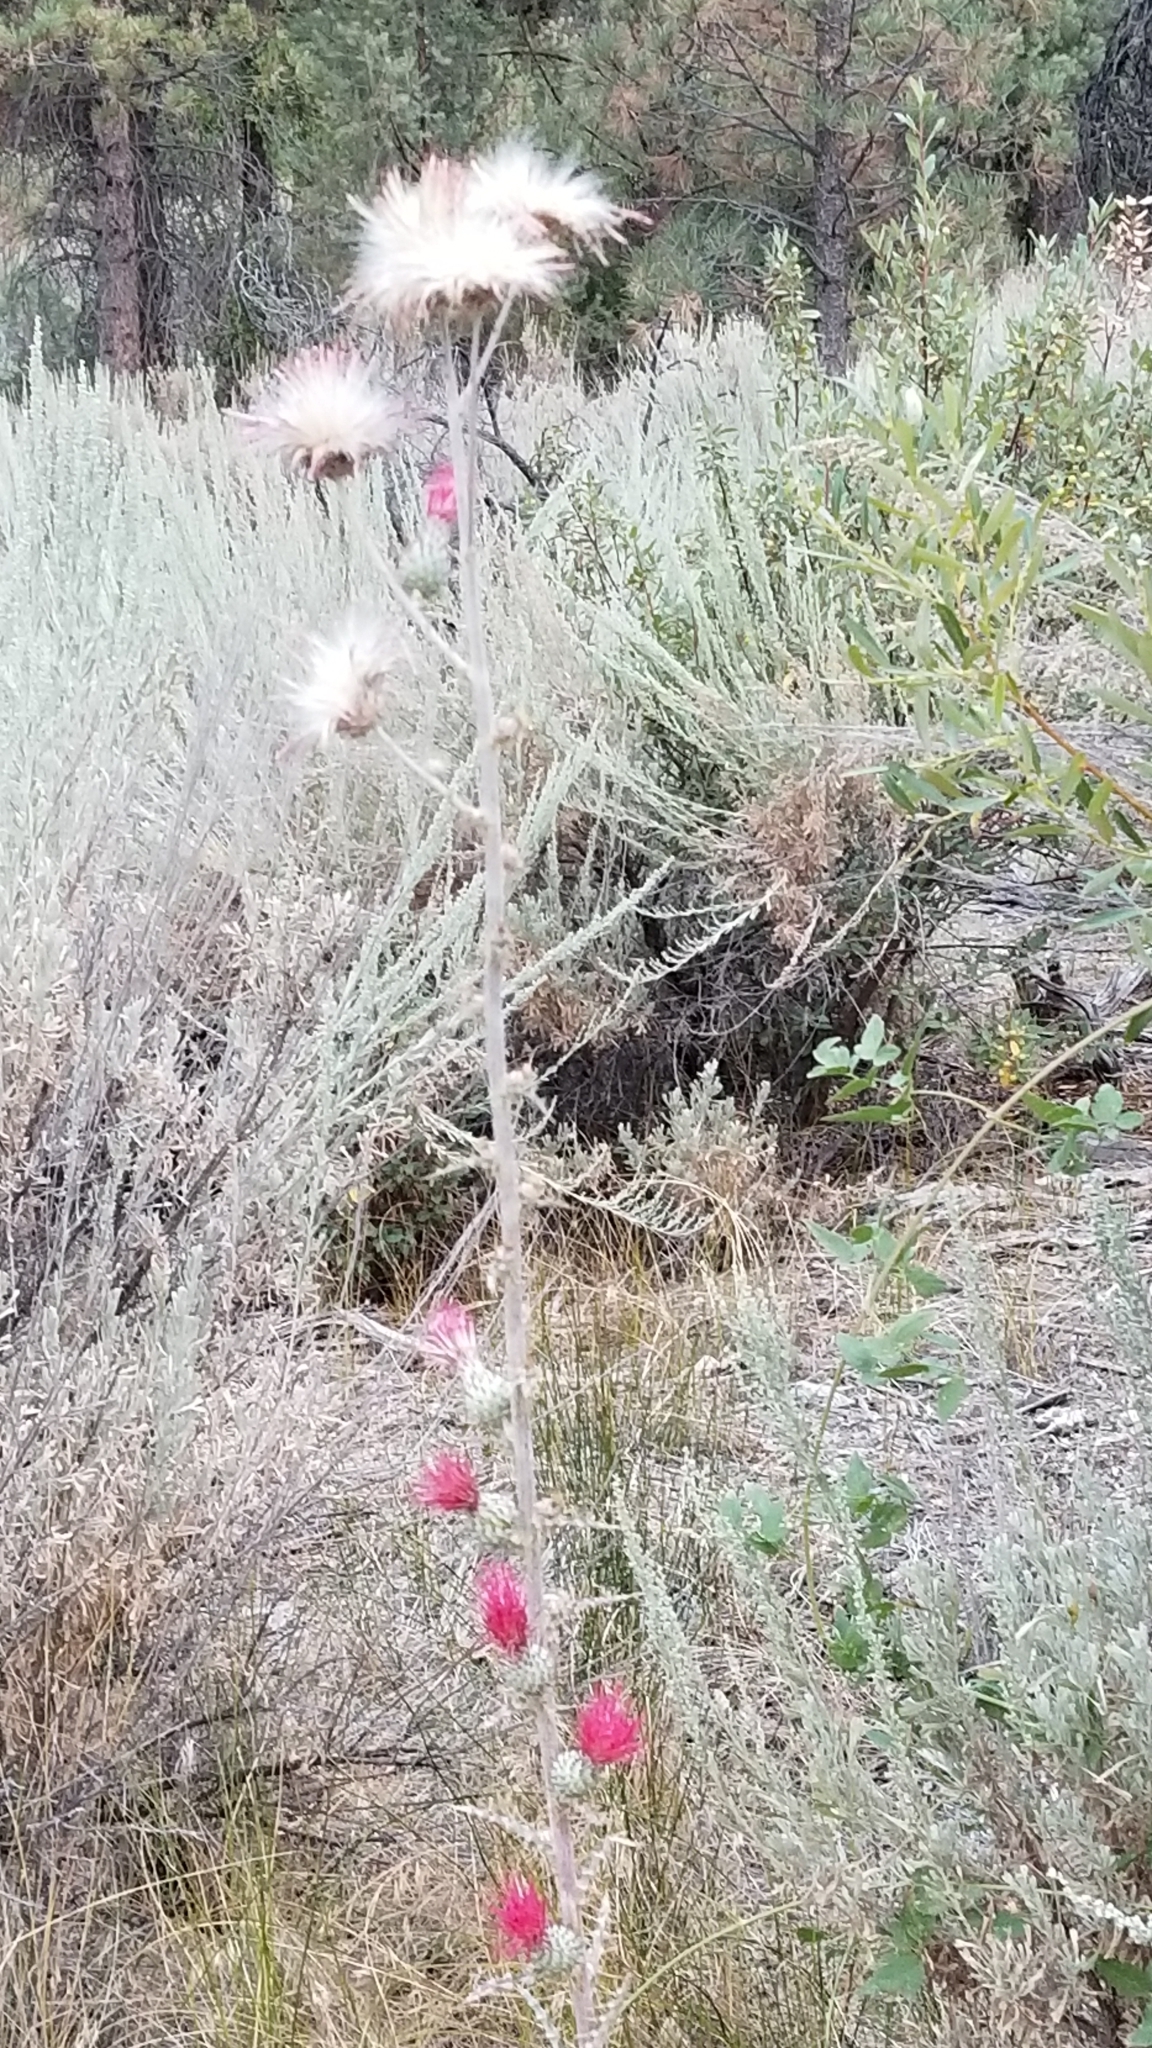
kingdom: Plantae
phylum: Tracheophyta
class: Magnoliopsida
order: Asterales
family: Asteraceae
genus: Cirsium
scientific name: Cirsium occidentale
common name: Western thistle
